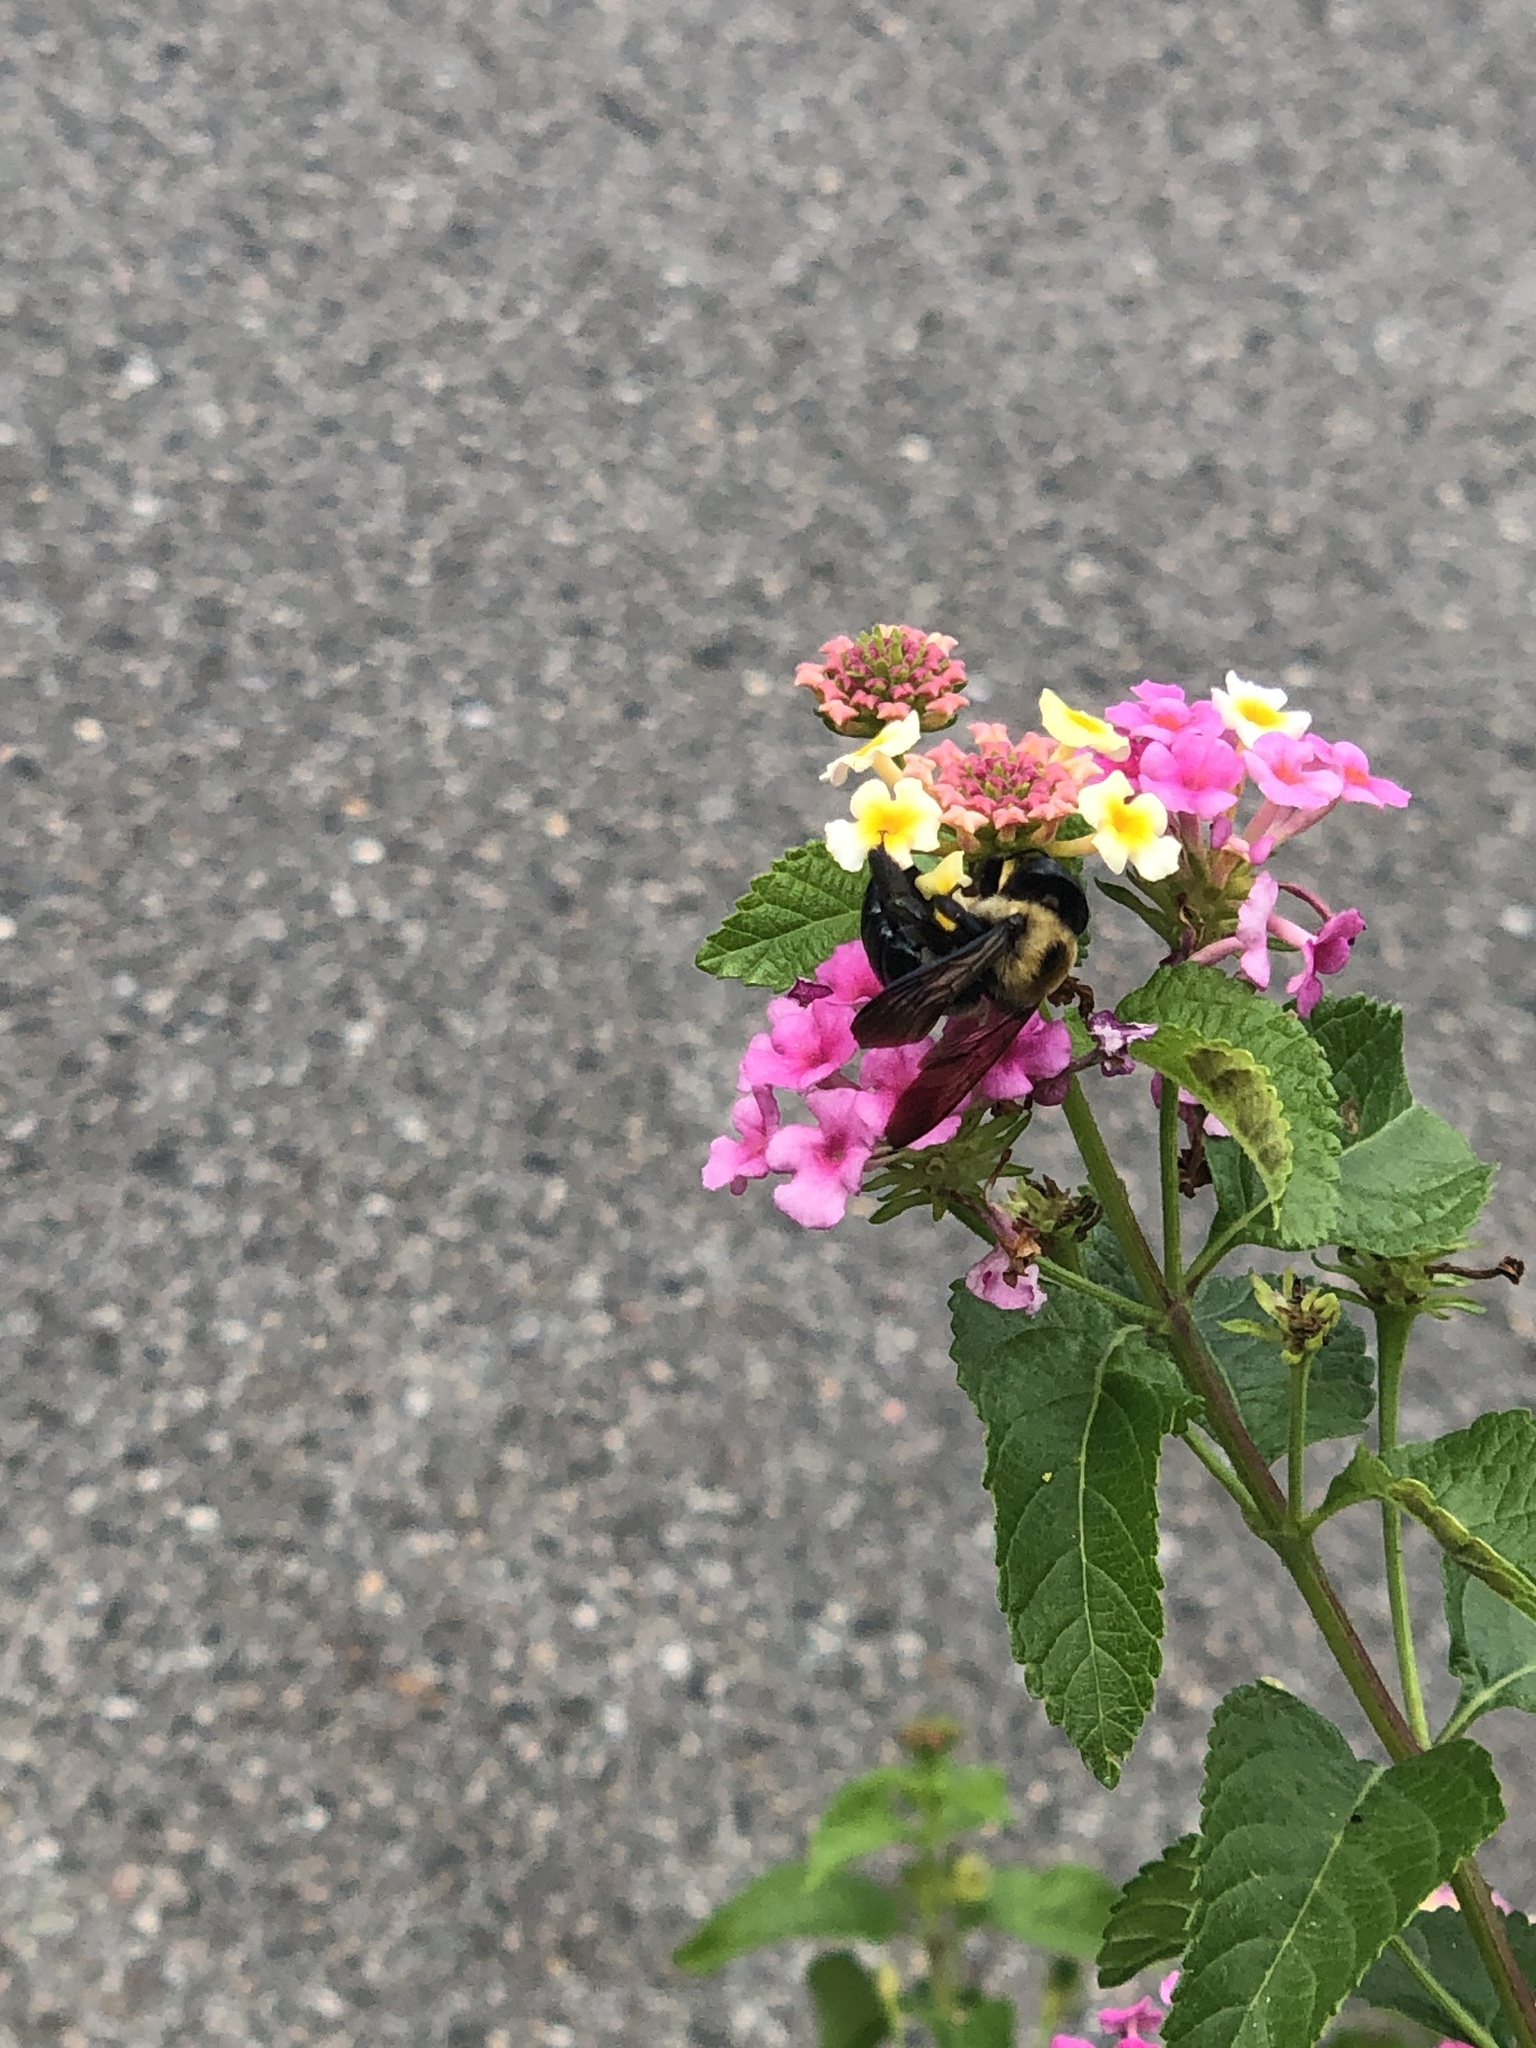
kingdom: Animalia
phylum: Arthropoda
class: Insecta
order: Hymenoptera
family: Apidae
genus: Xylocopa
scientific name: Xylocopa virginica
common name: Carpenter bee
